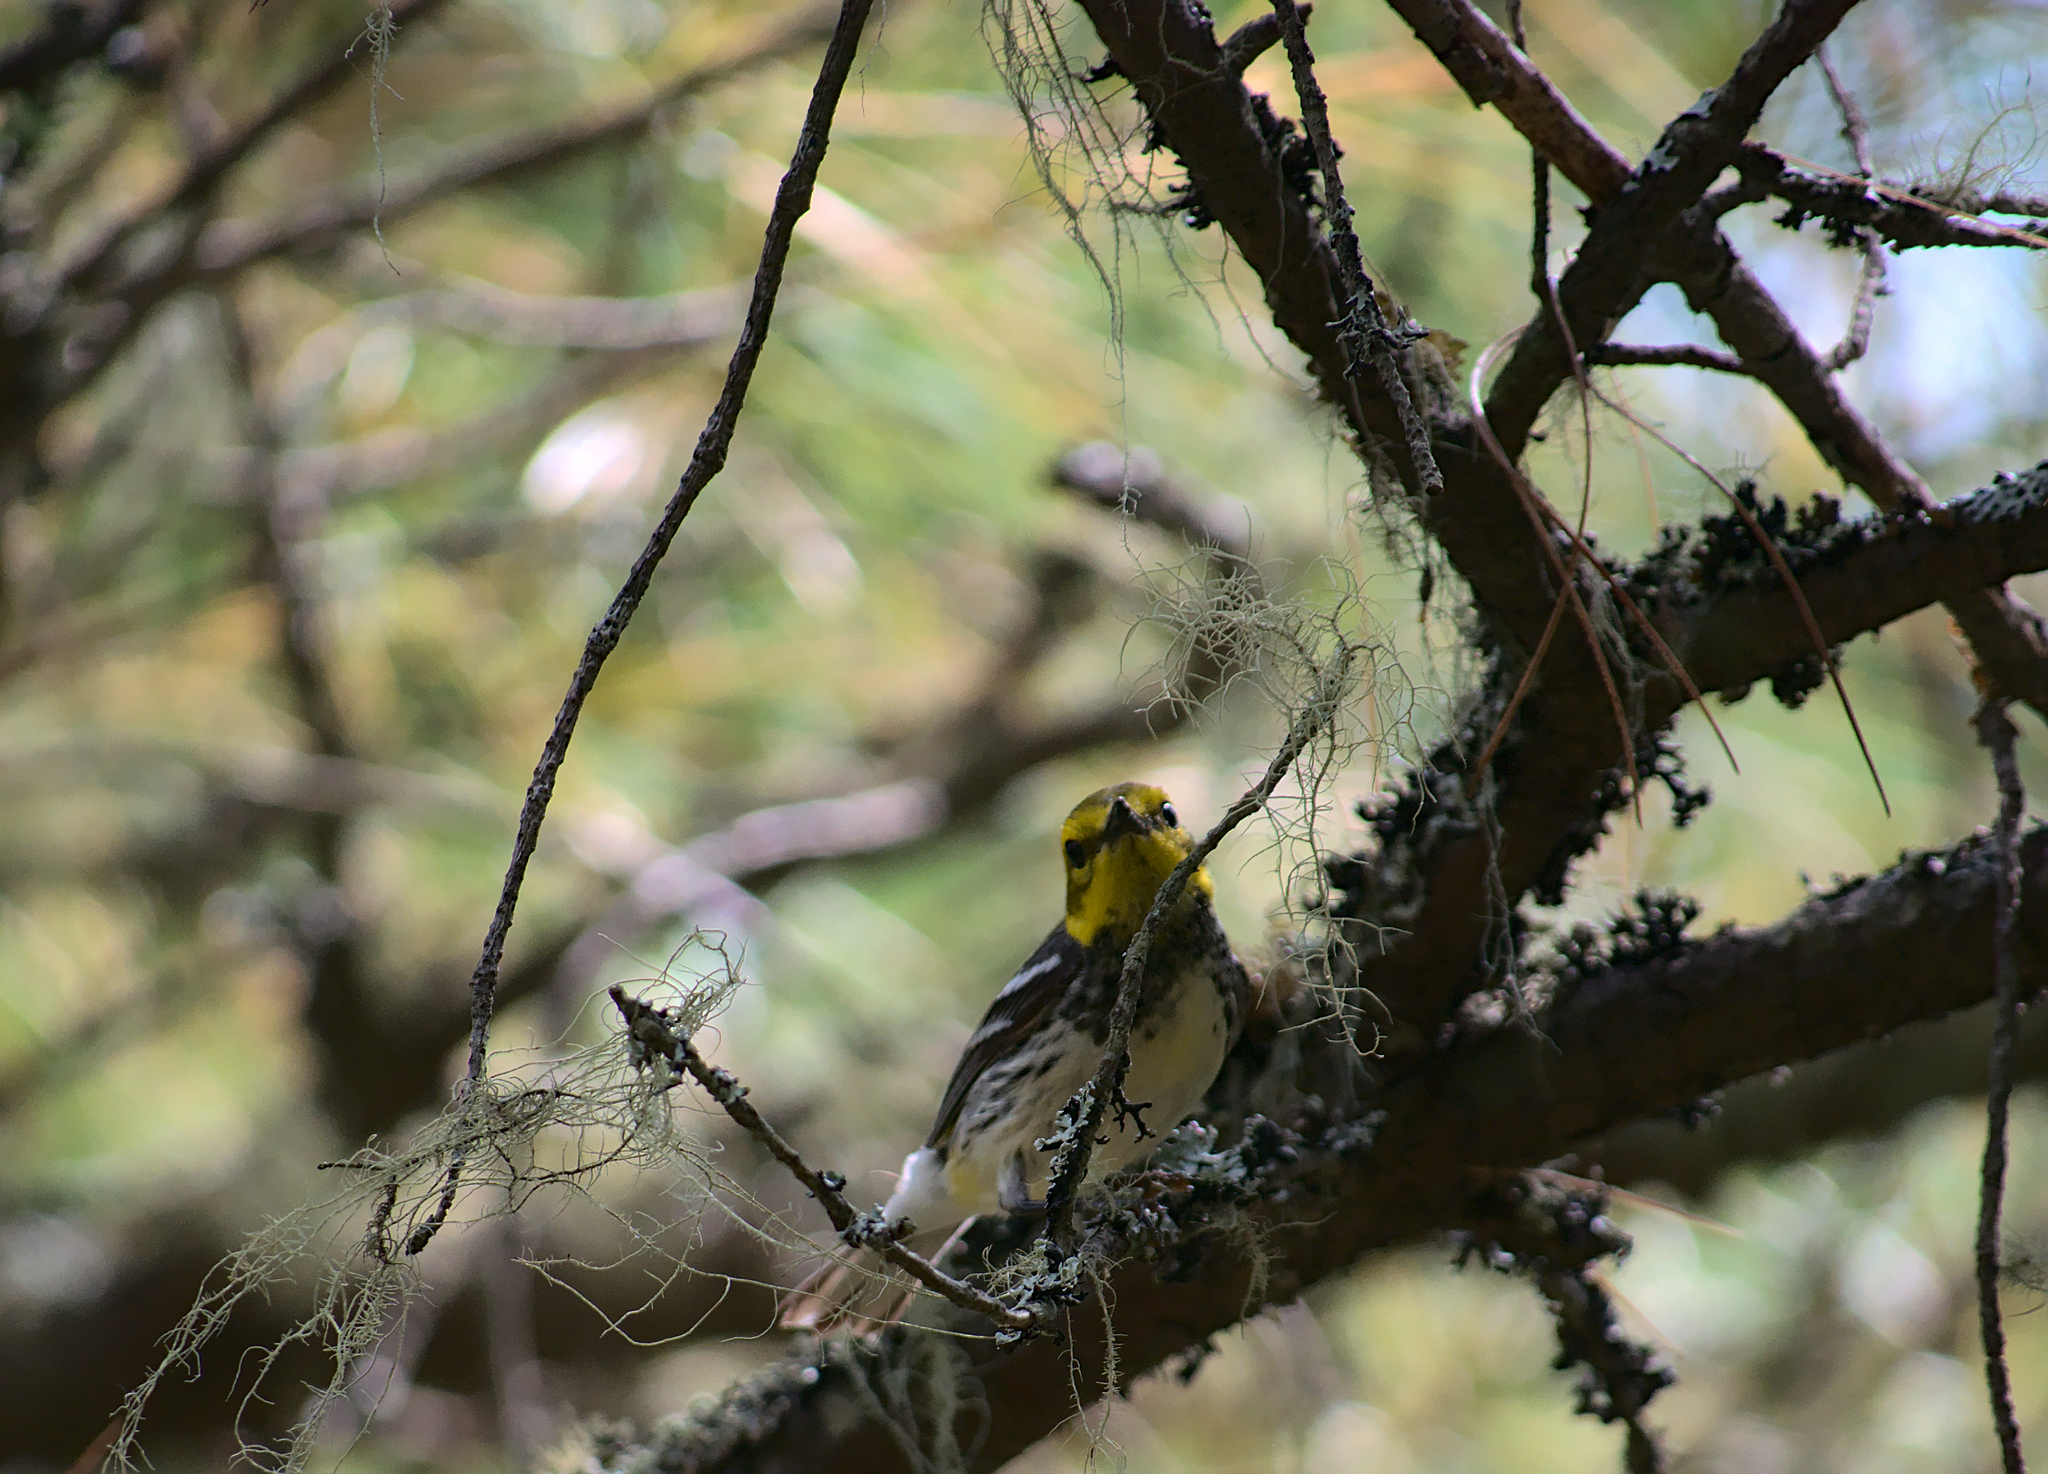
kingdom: Animalia
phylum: Chordata
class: Aves
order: Passeriformes
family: Parulidae
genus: Setophaga
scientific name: Setophaga virens
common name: Black-throated green warbler
